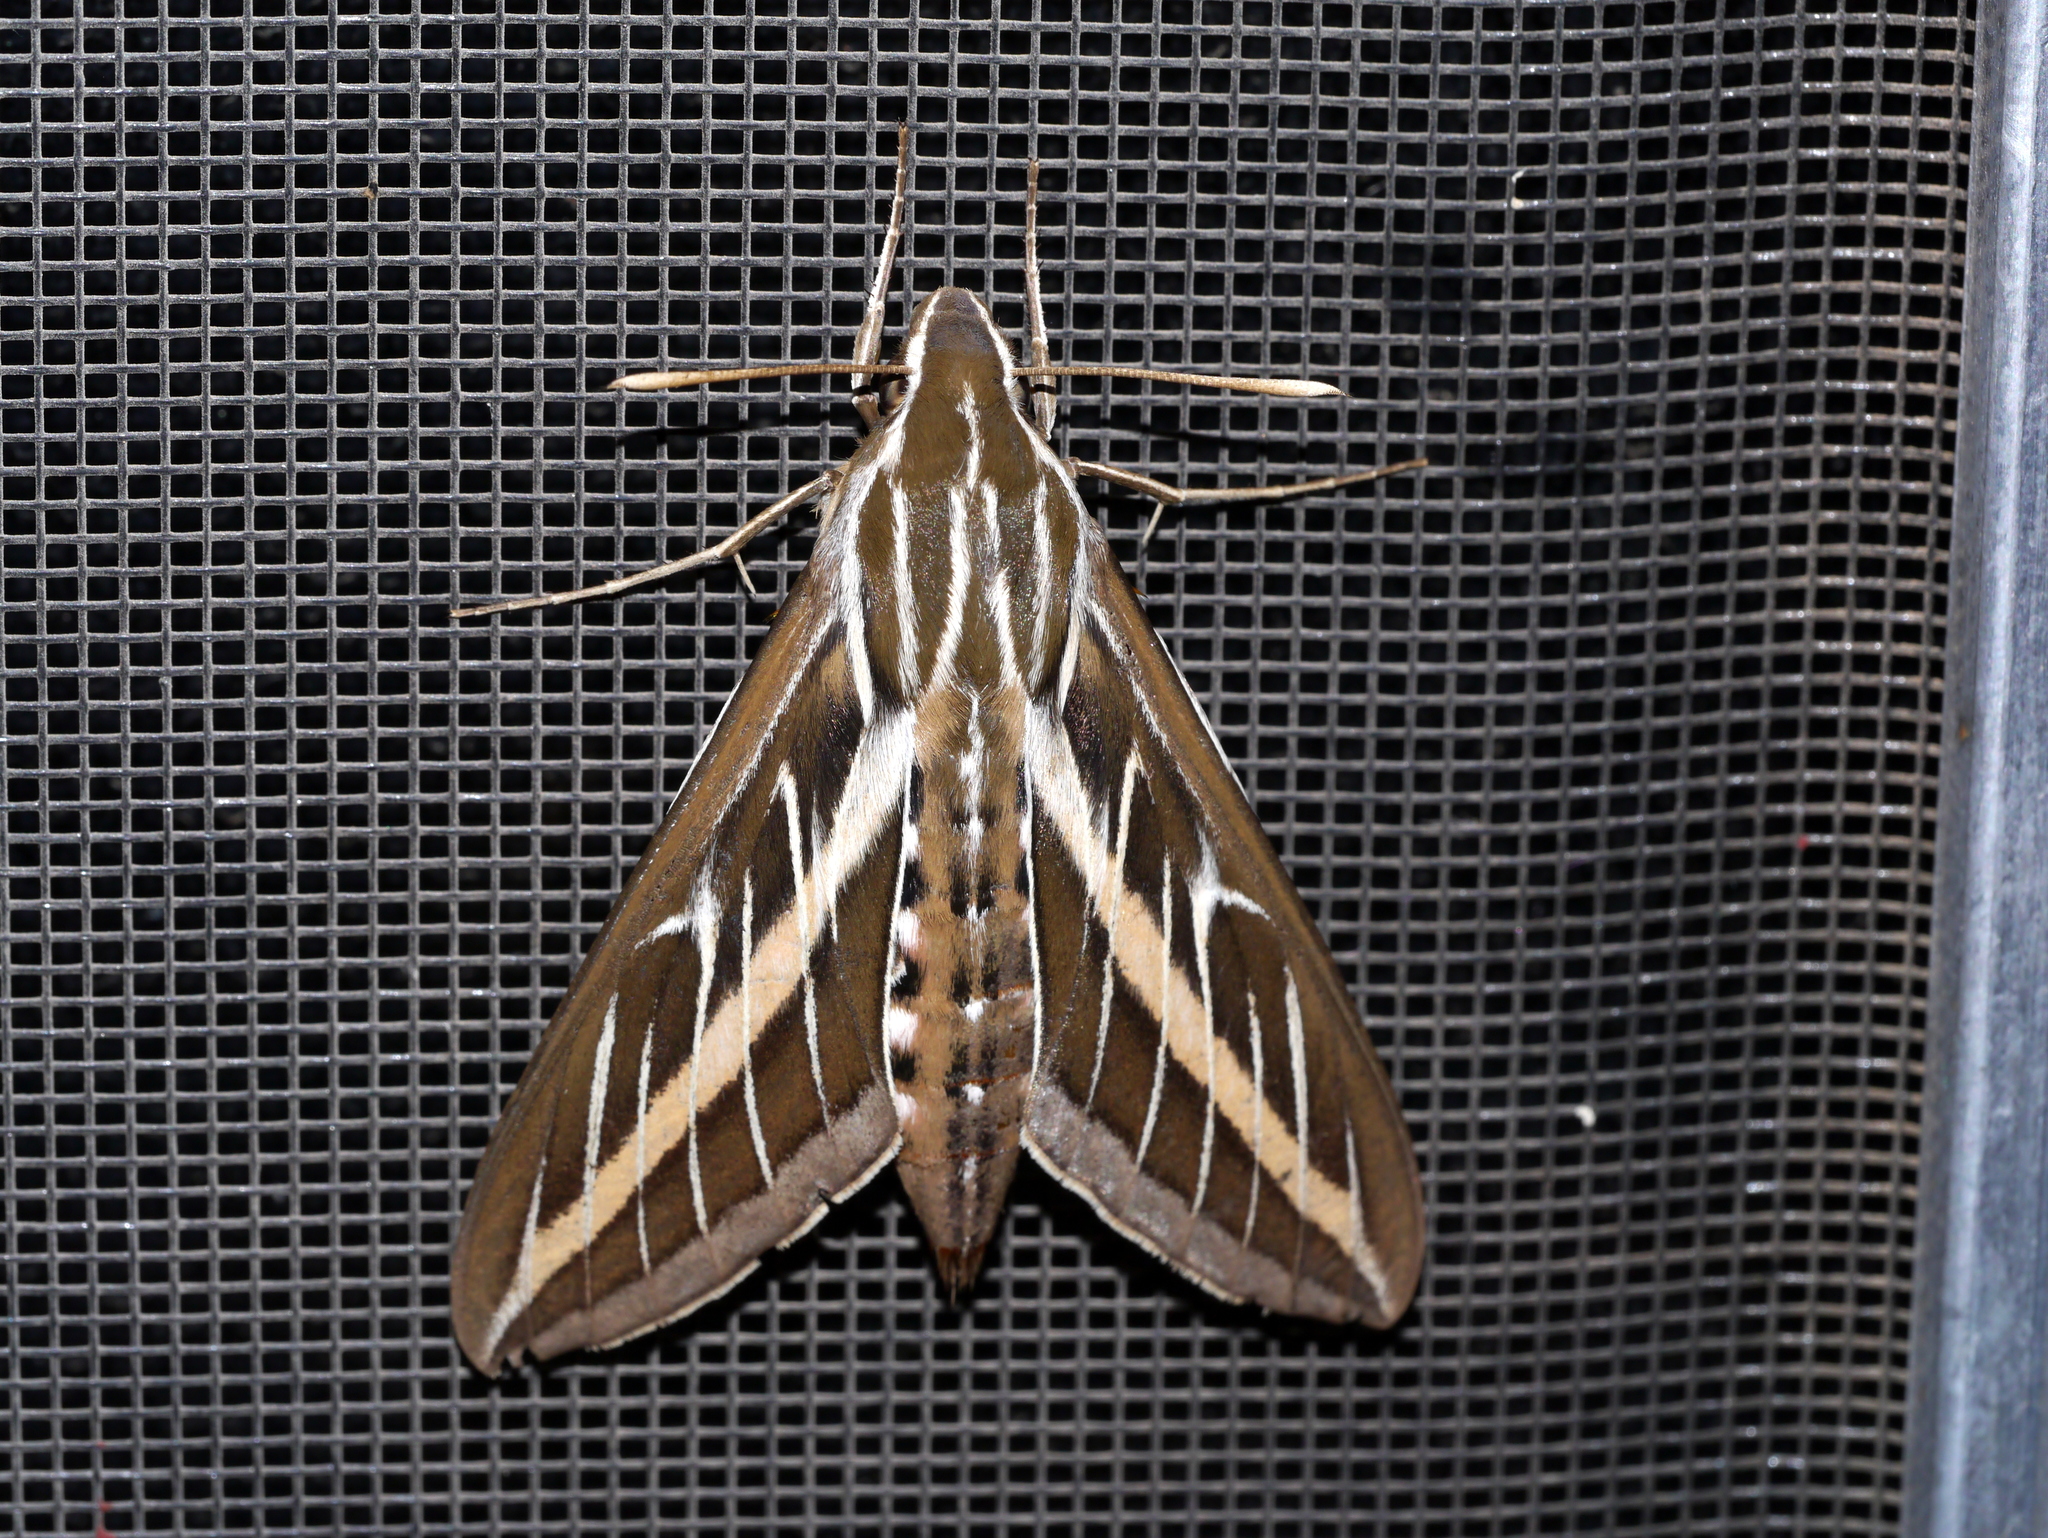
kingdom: Animalia
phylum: Arthropoda
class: Insecta
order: Lepidoptera
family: Sphingidae
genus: Hyles
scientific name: Hyles lineata
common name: White-lined sphinx
